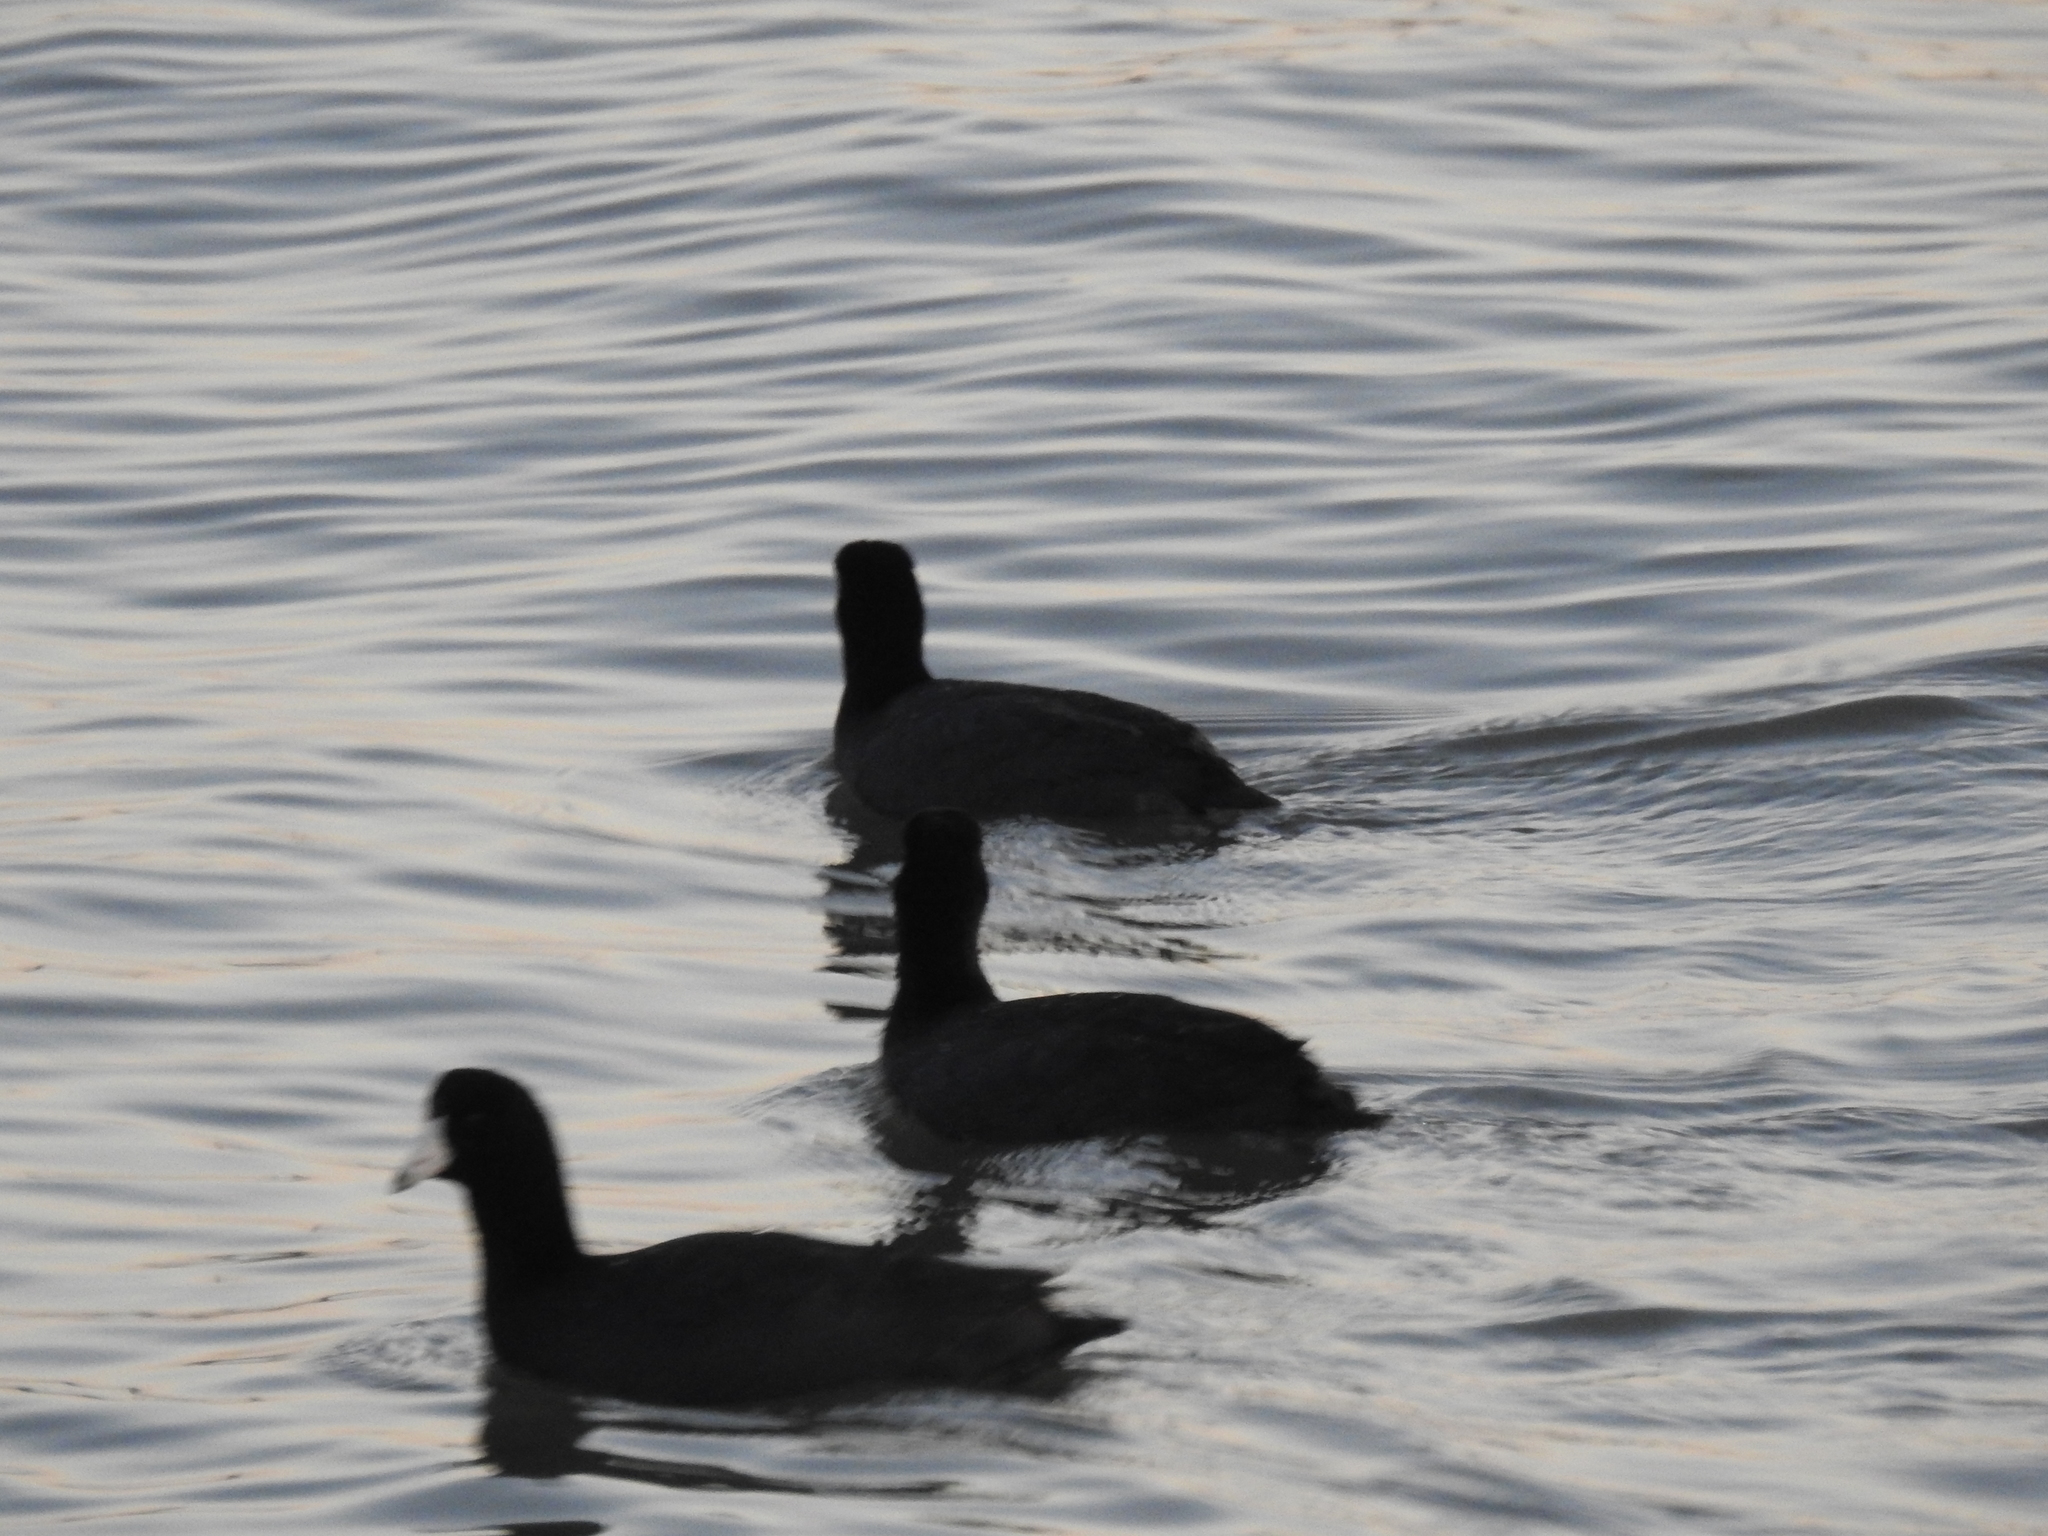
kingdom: Animalia
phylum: Chordata
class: Aves
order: Gruiformes
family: Rallidae
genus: Fulica
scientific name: Fulica americana
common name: American coot
